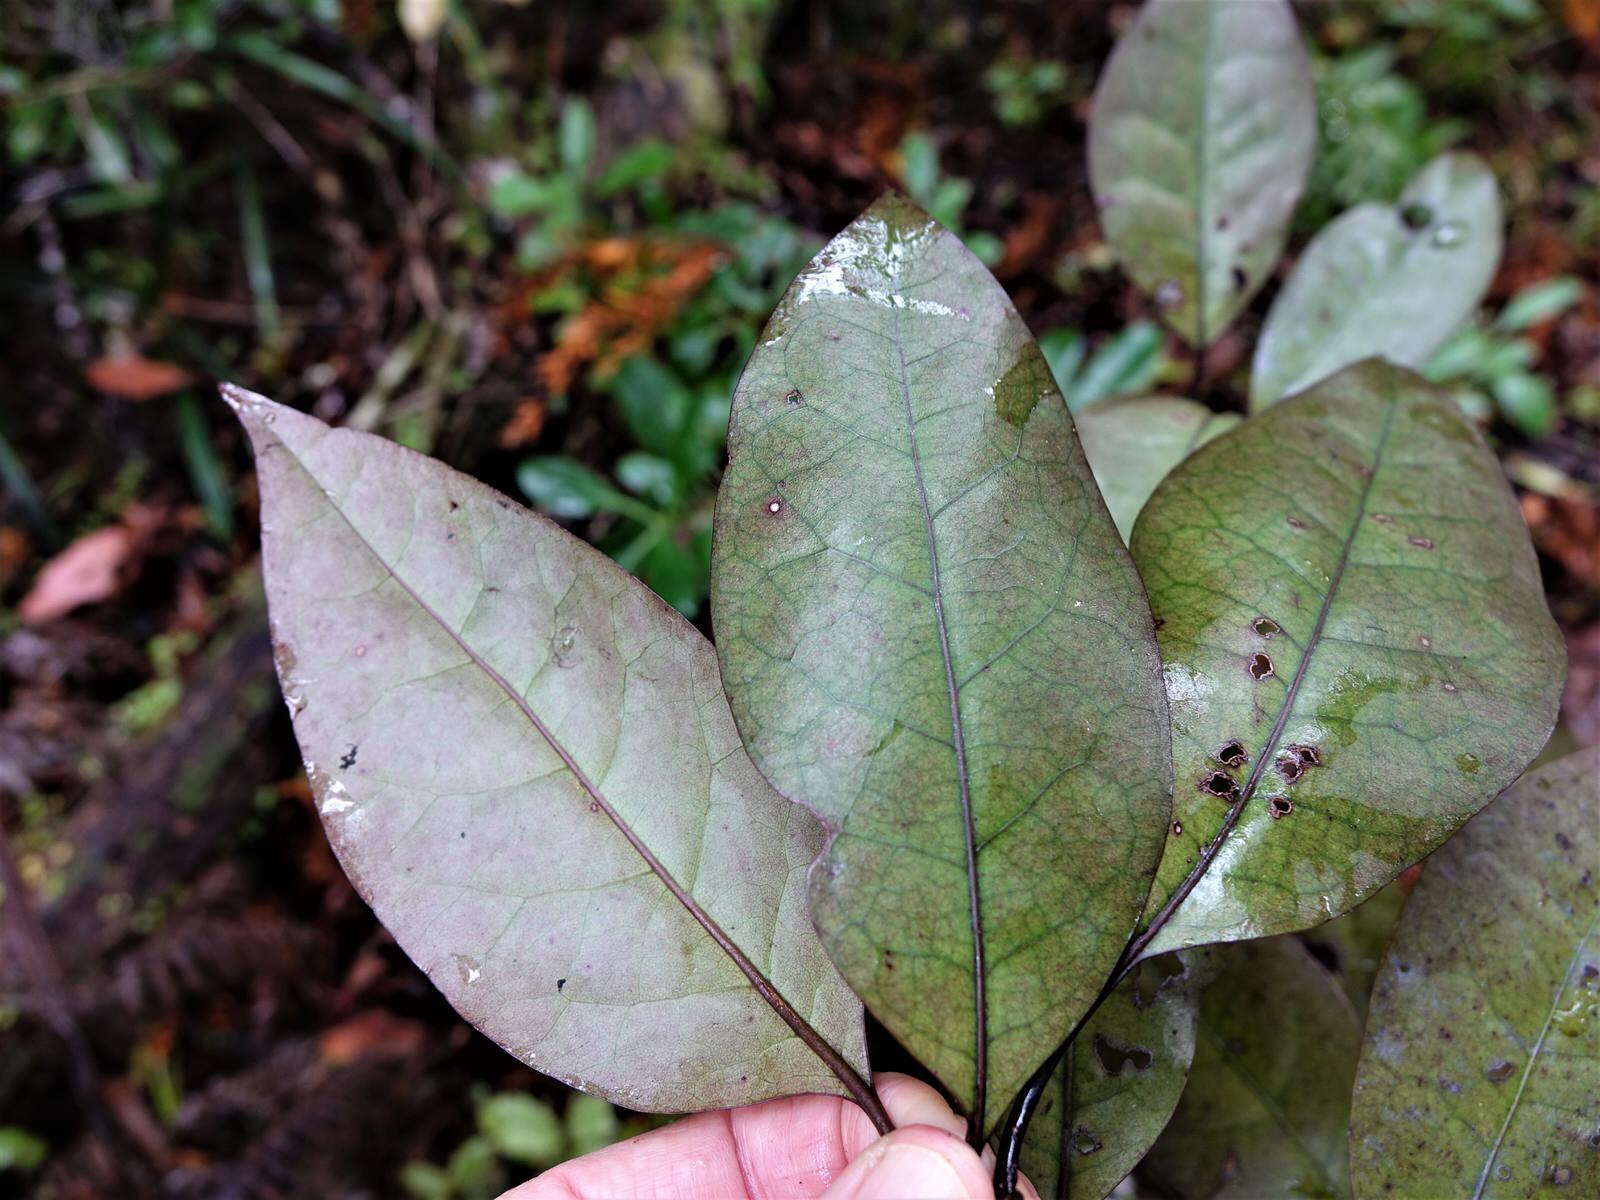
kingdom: Plantae
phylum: Tracheophyta
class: Magnoliopsida
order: Laurales
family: Lauraceae
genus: Litsea
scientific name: Litsea calicaris
